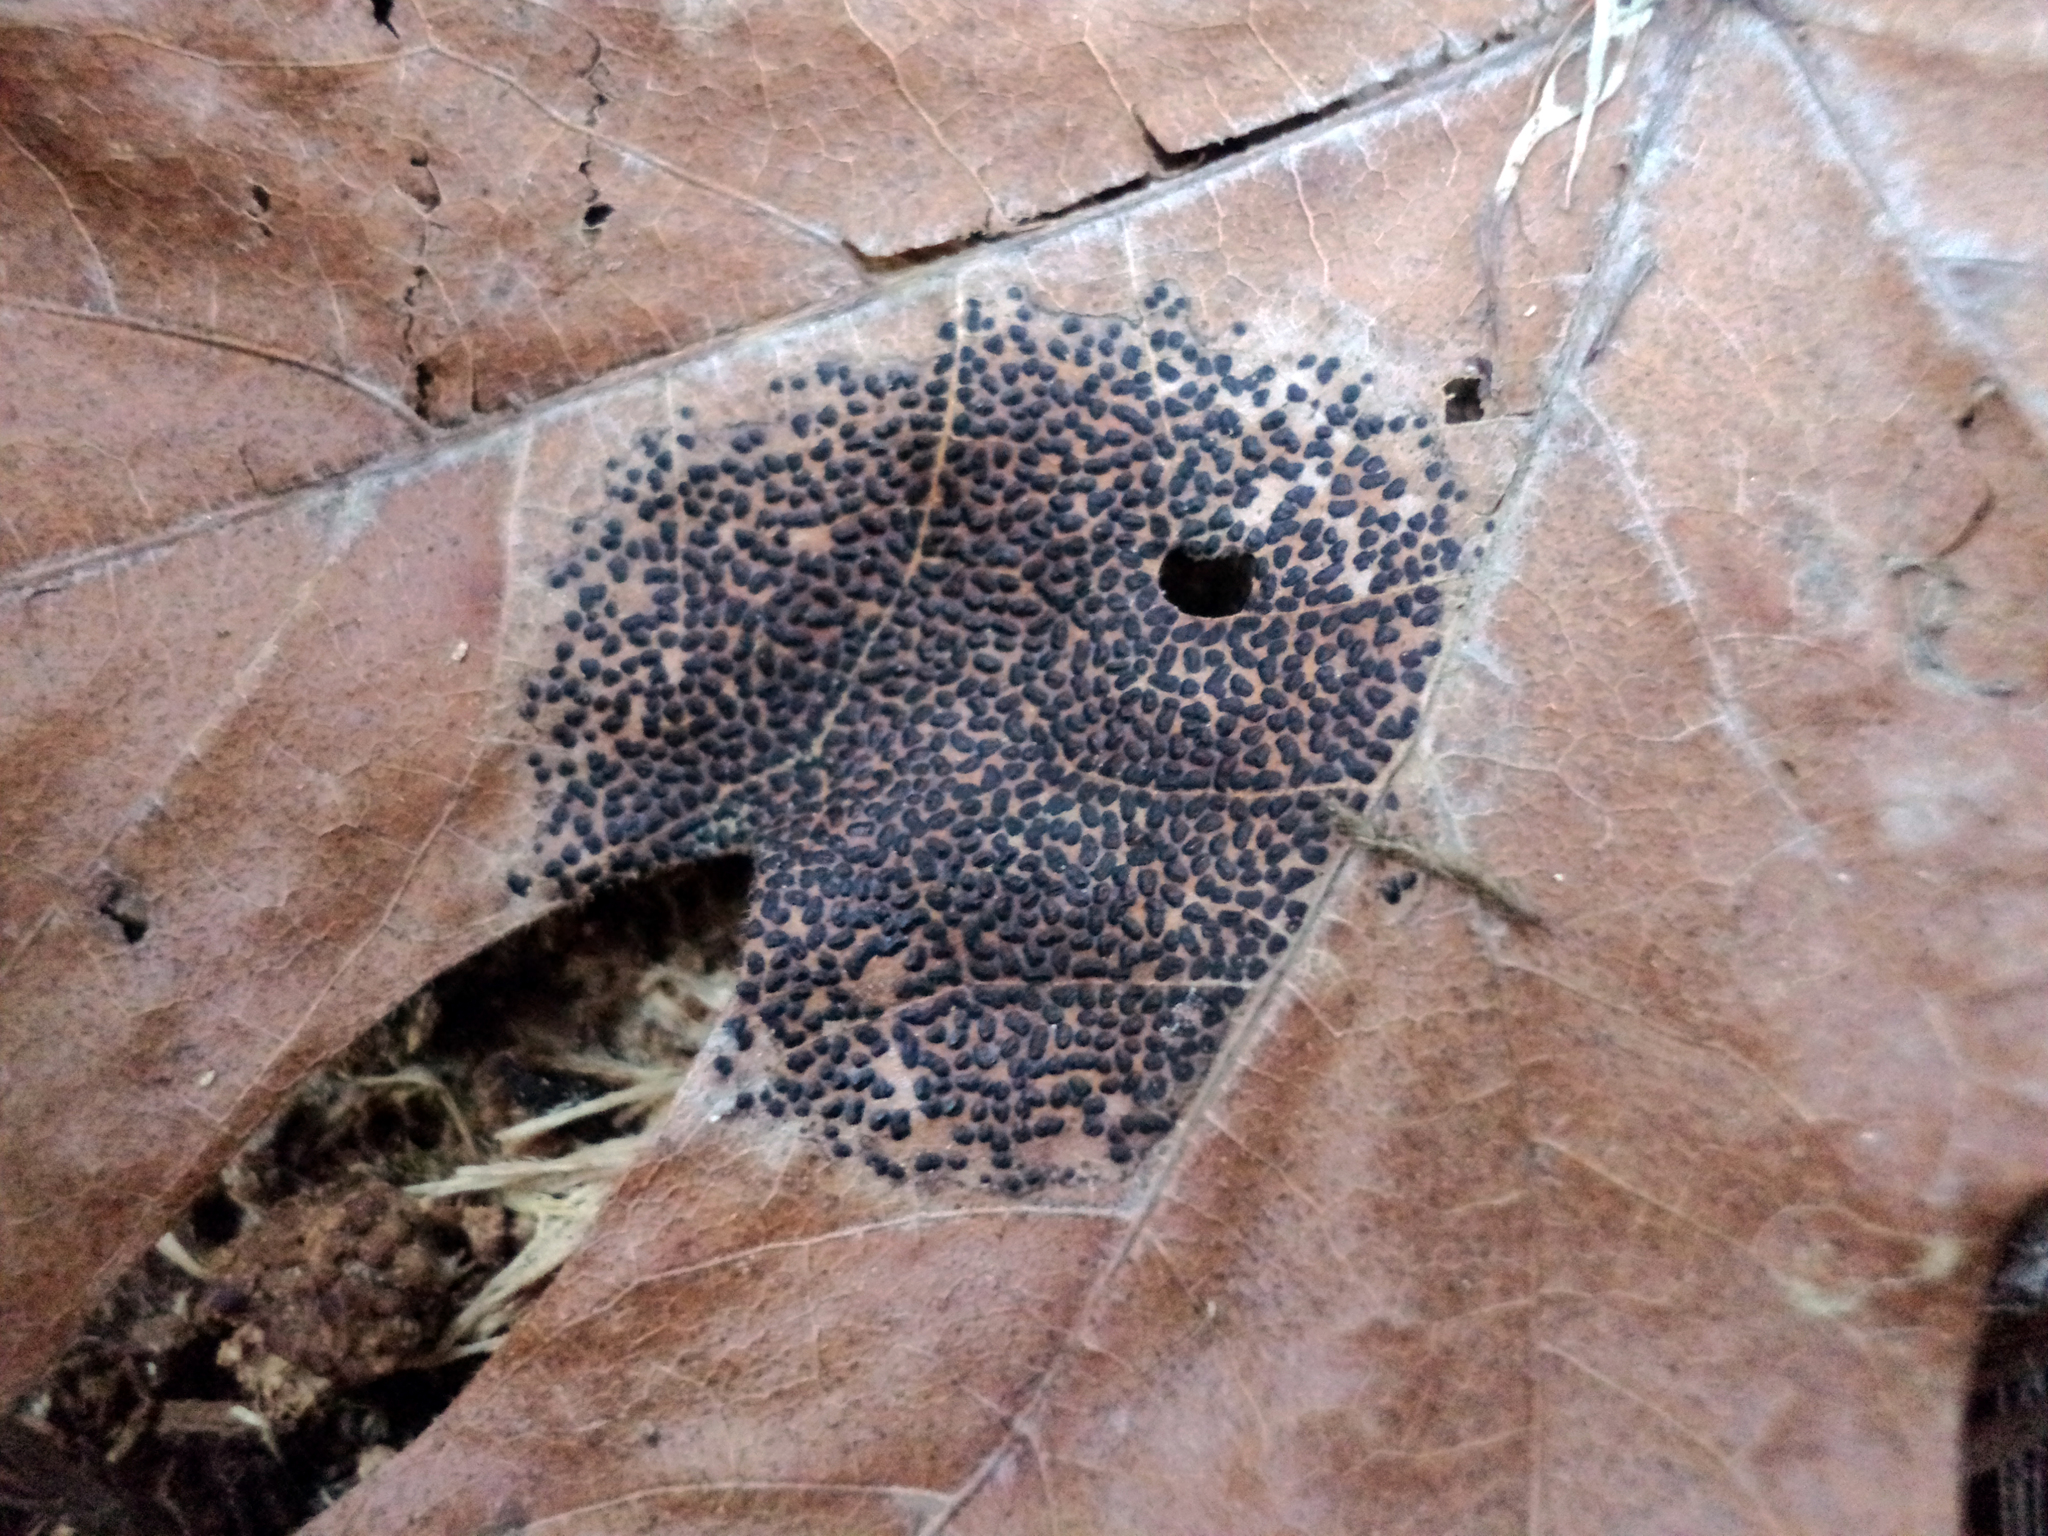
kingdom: Fungi
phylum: Ascomycota
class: Leotiomycetes
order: Rhytismatales
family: Rhytismataceae
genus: Rhytisma
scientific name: Rhytisma punctatum
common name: Speckled tar spot
